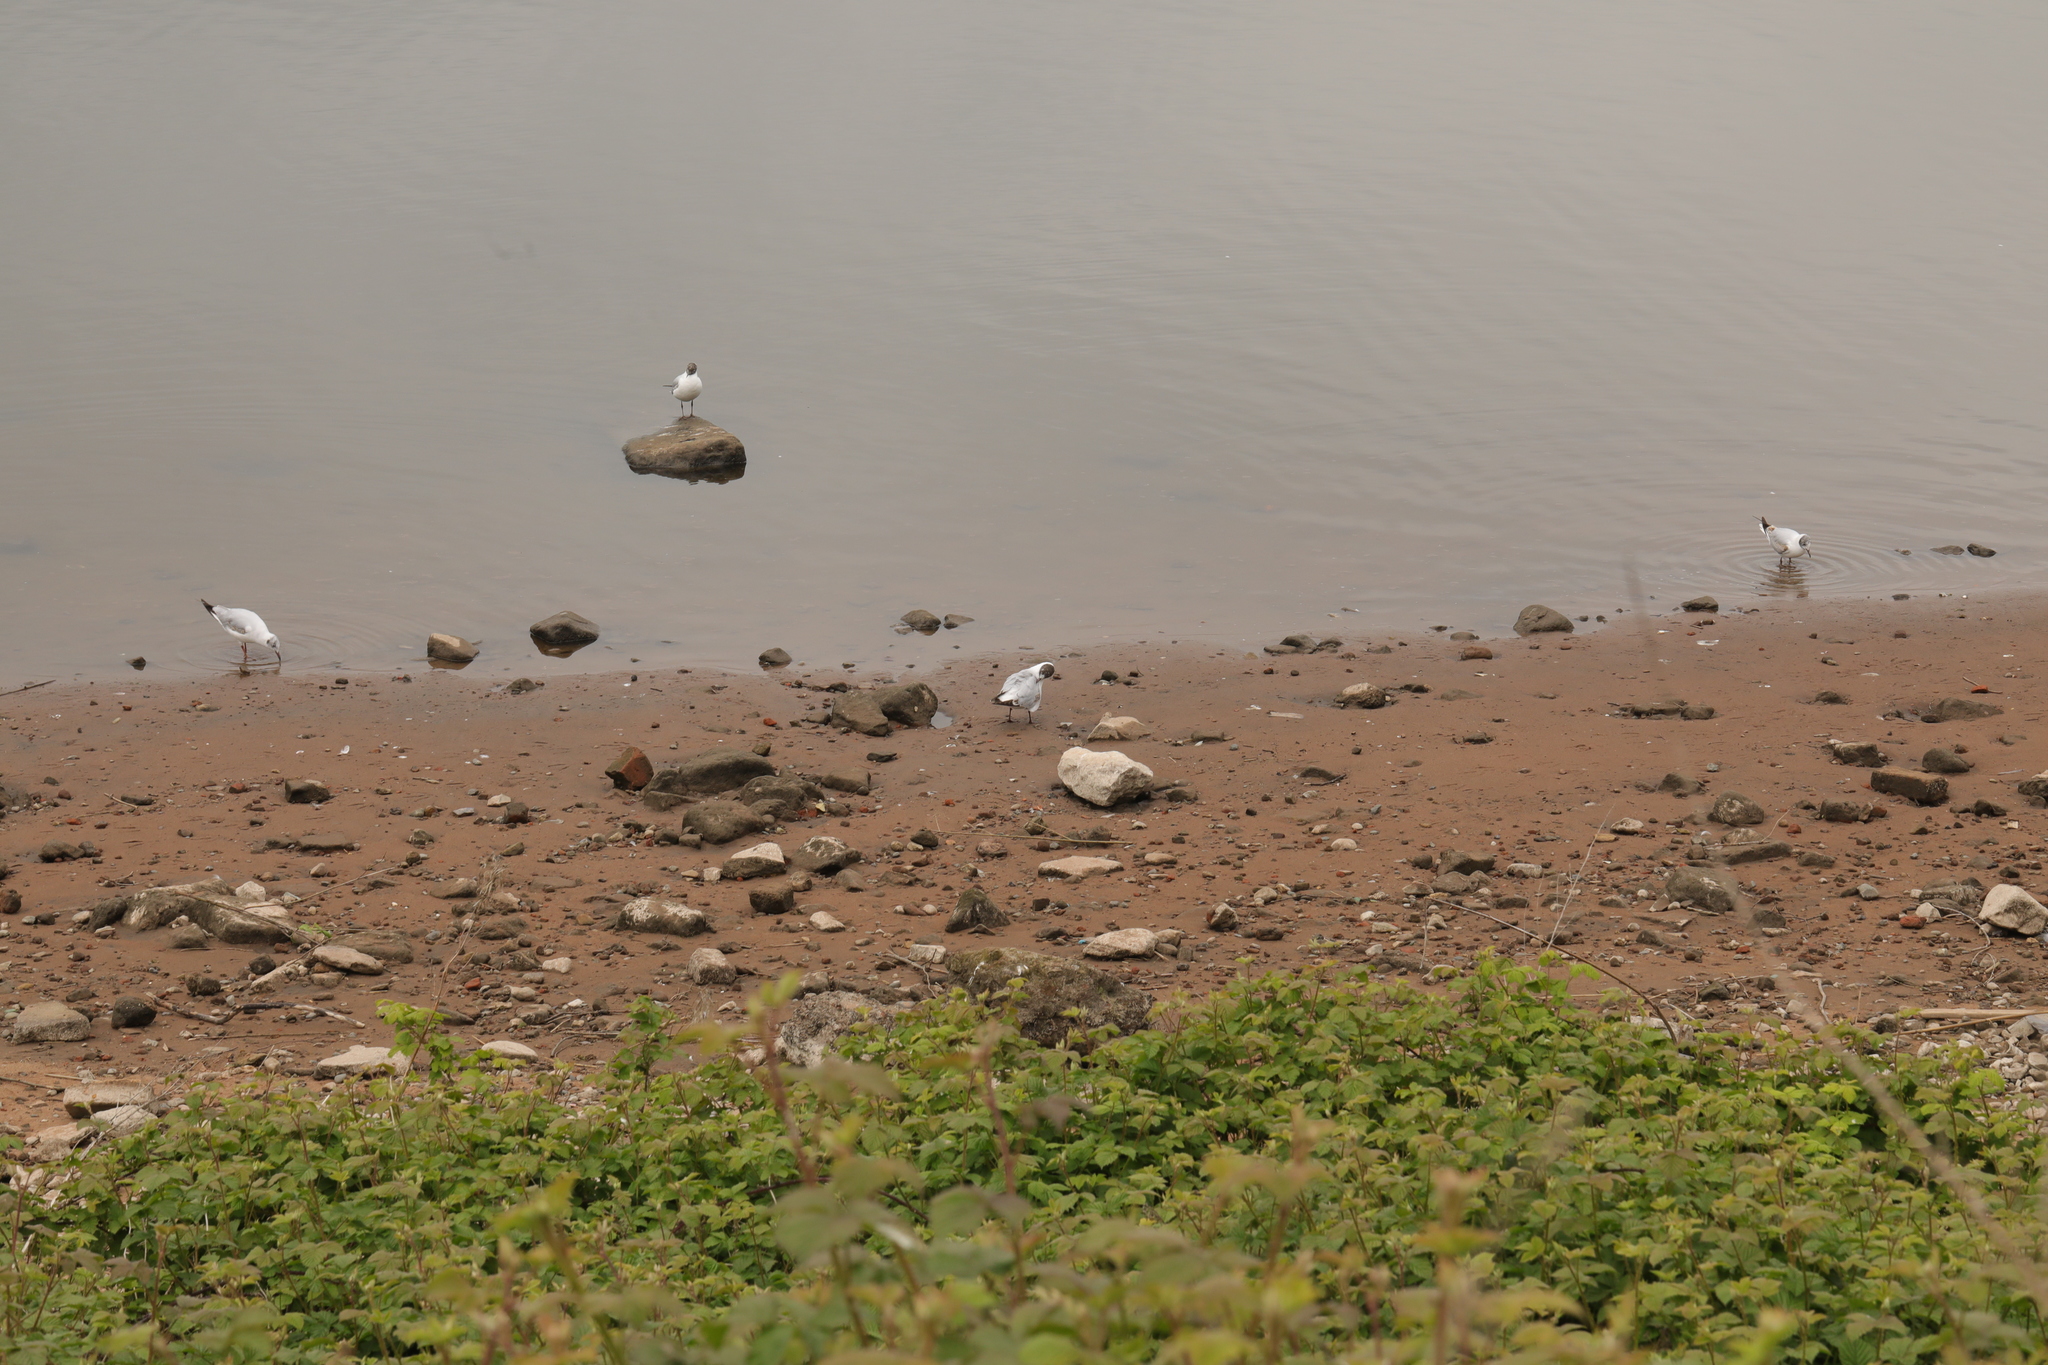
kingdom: Animalia
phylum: Chordata
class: Aves
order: Charadriiformes
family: Laridae
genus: Chroicocephalus
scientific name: Chroicocephalus ridibundus
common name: Black-headed gull
